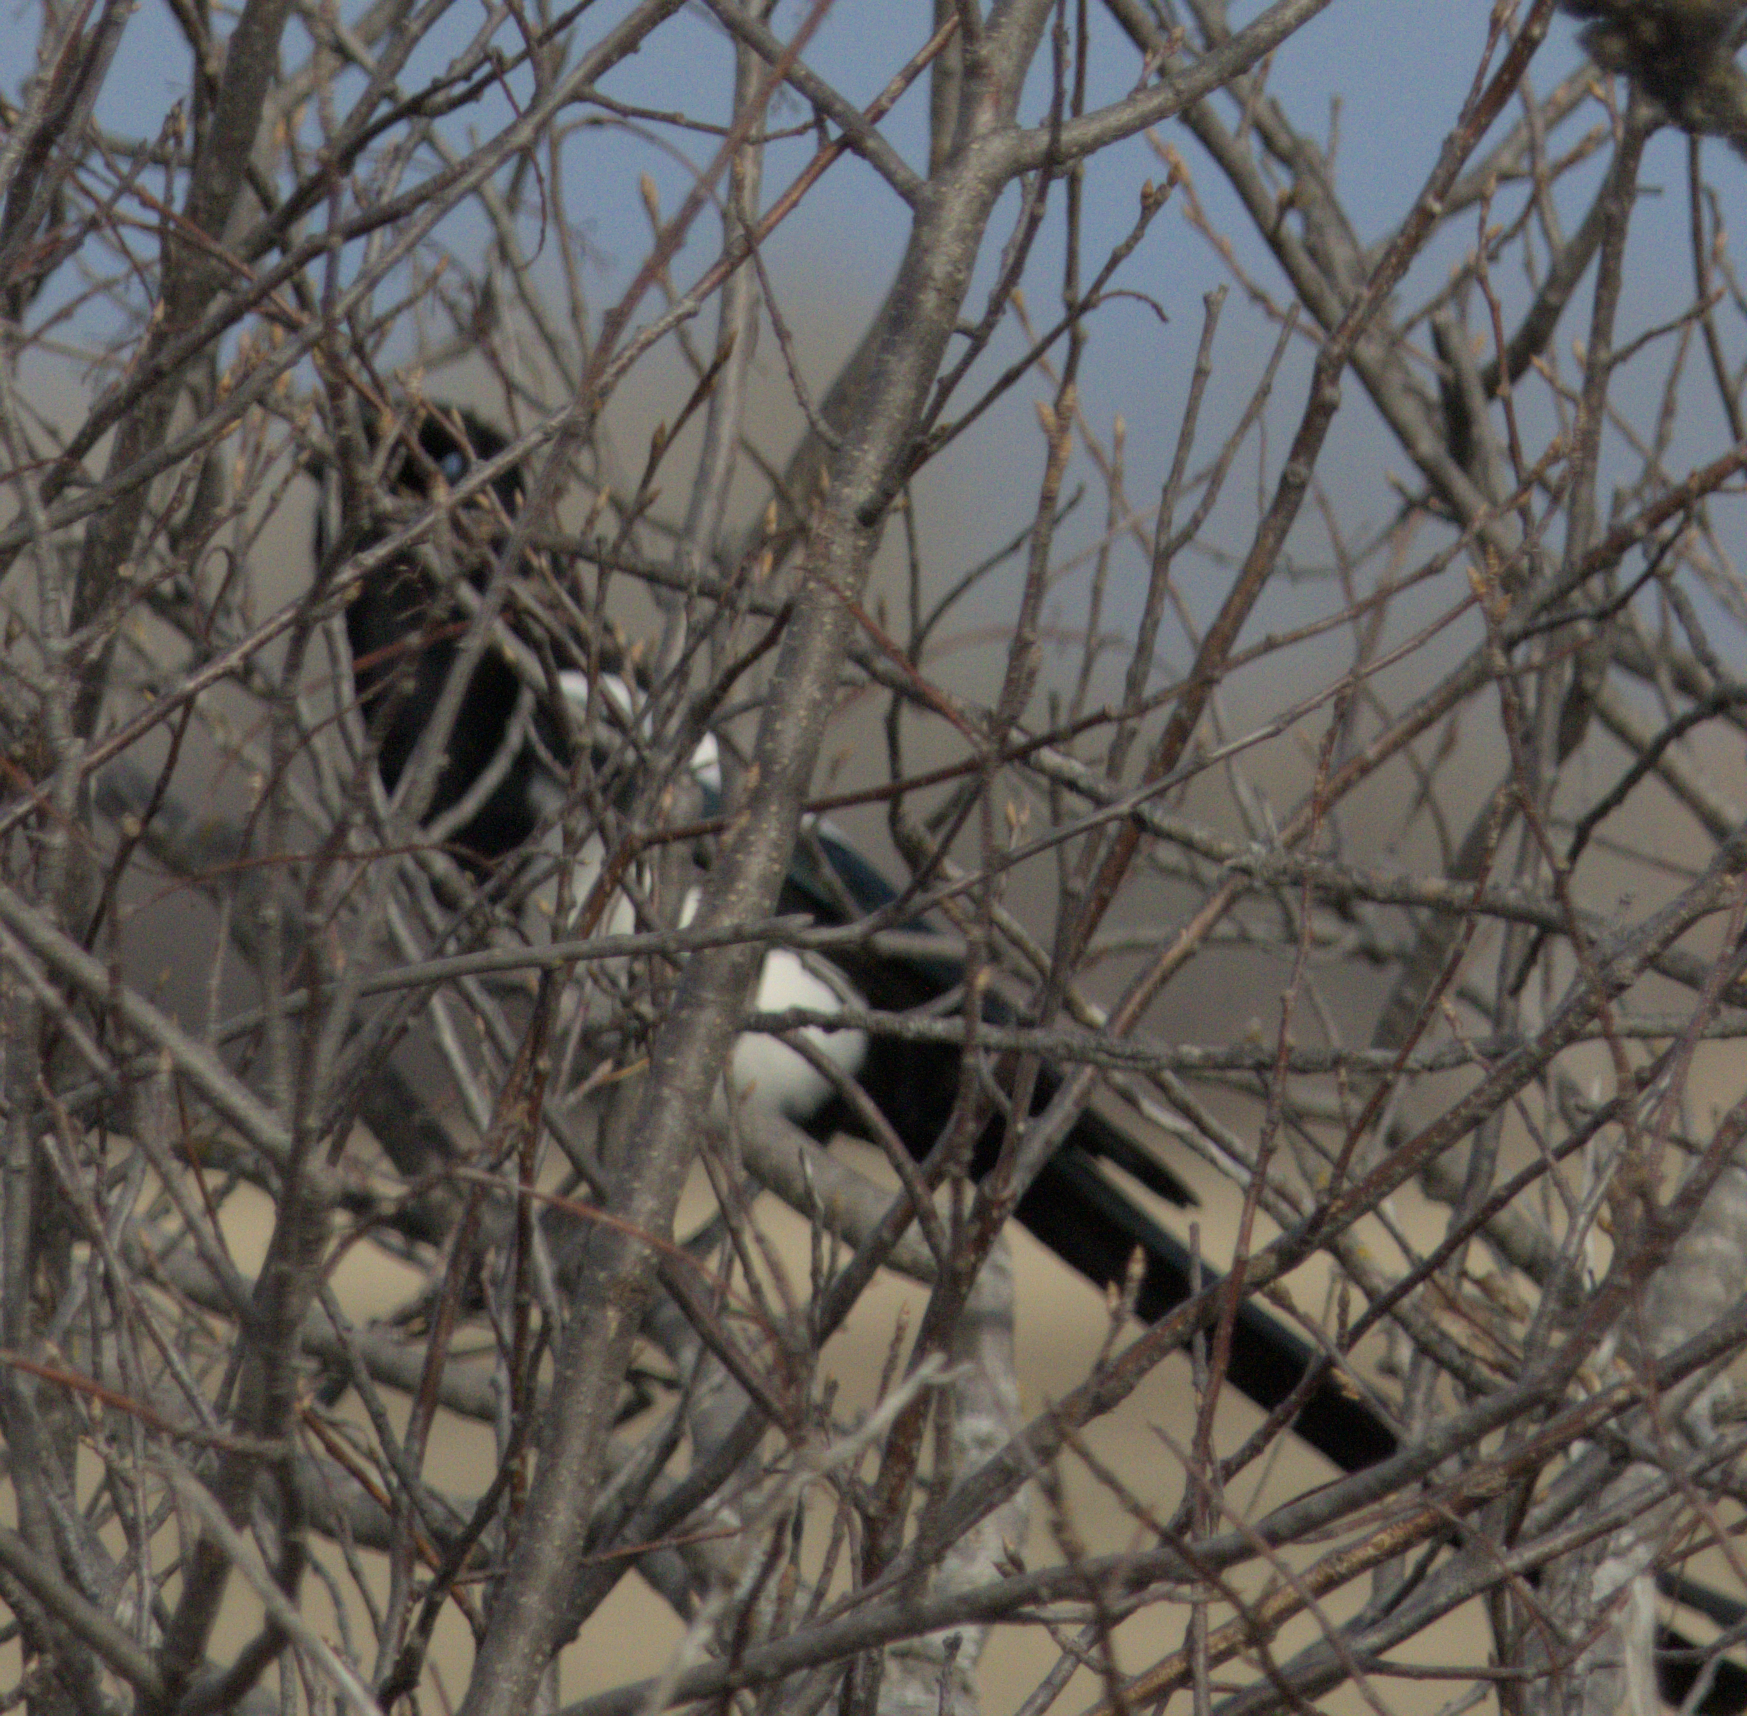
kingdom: Animalia
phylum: Chordata
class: Aves
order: Passeriformes
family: Corvidae
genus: Pica
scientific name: Pica hudsonia
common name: Black-billed magpie
